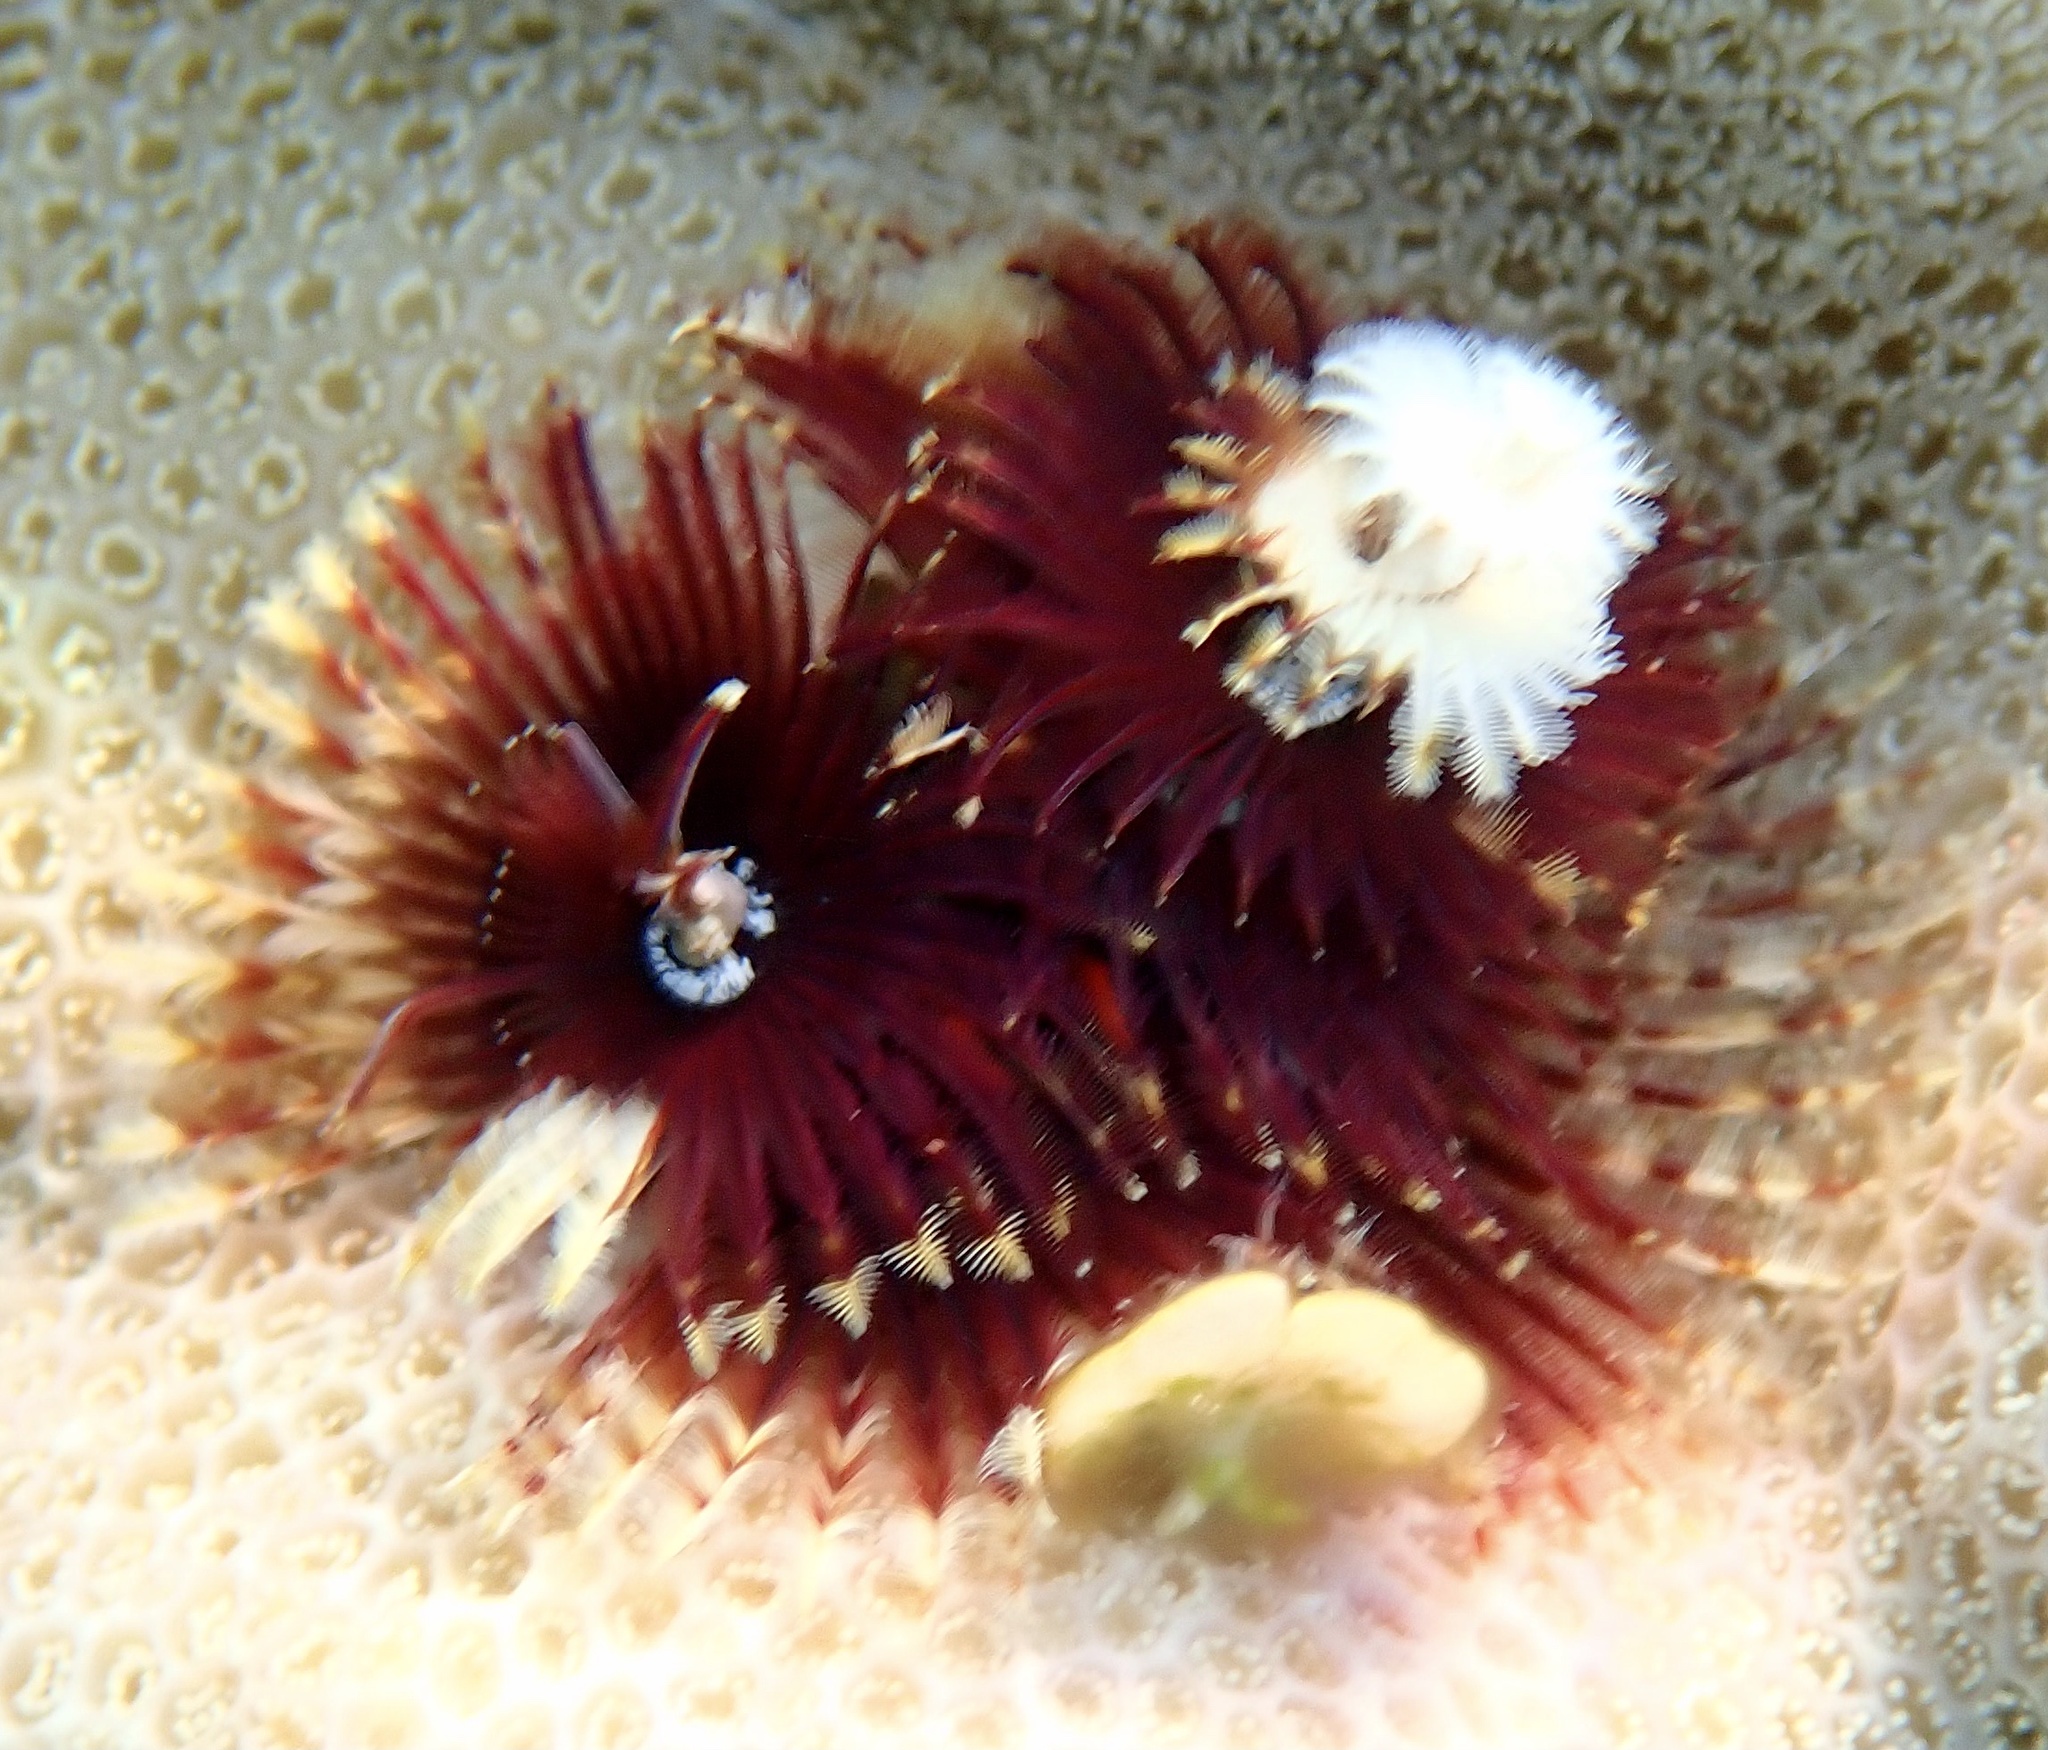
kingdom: Animalia
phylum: Annelida
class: Polychaeta
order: Sabellida
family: Serpulidae
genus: Spirobranchus
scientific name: Spirobranchus
